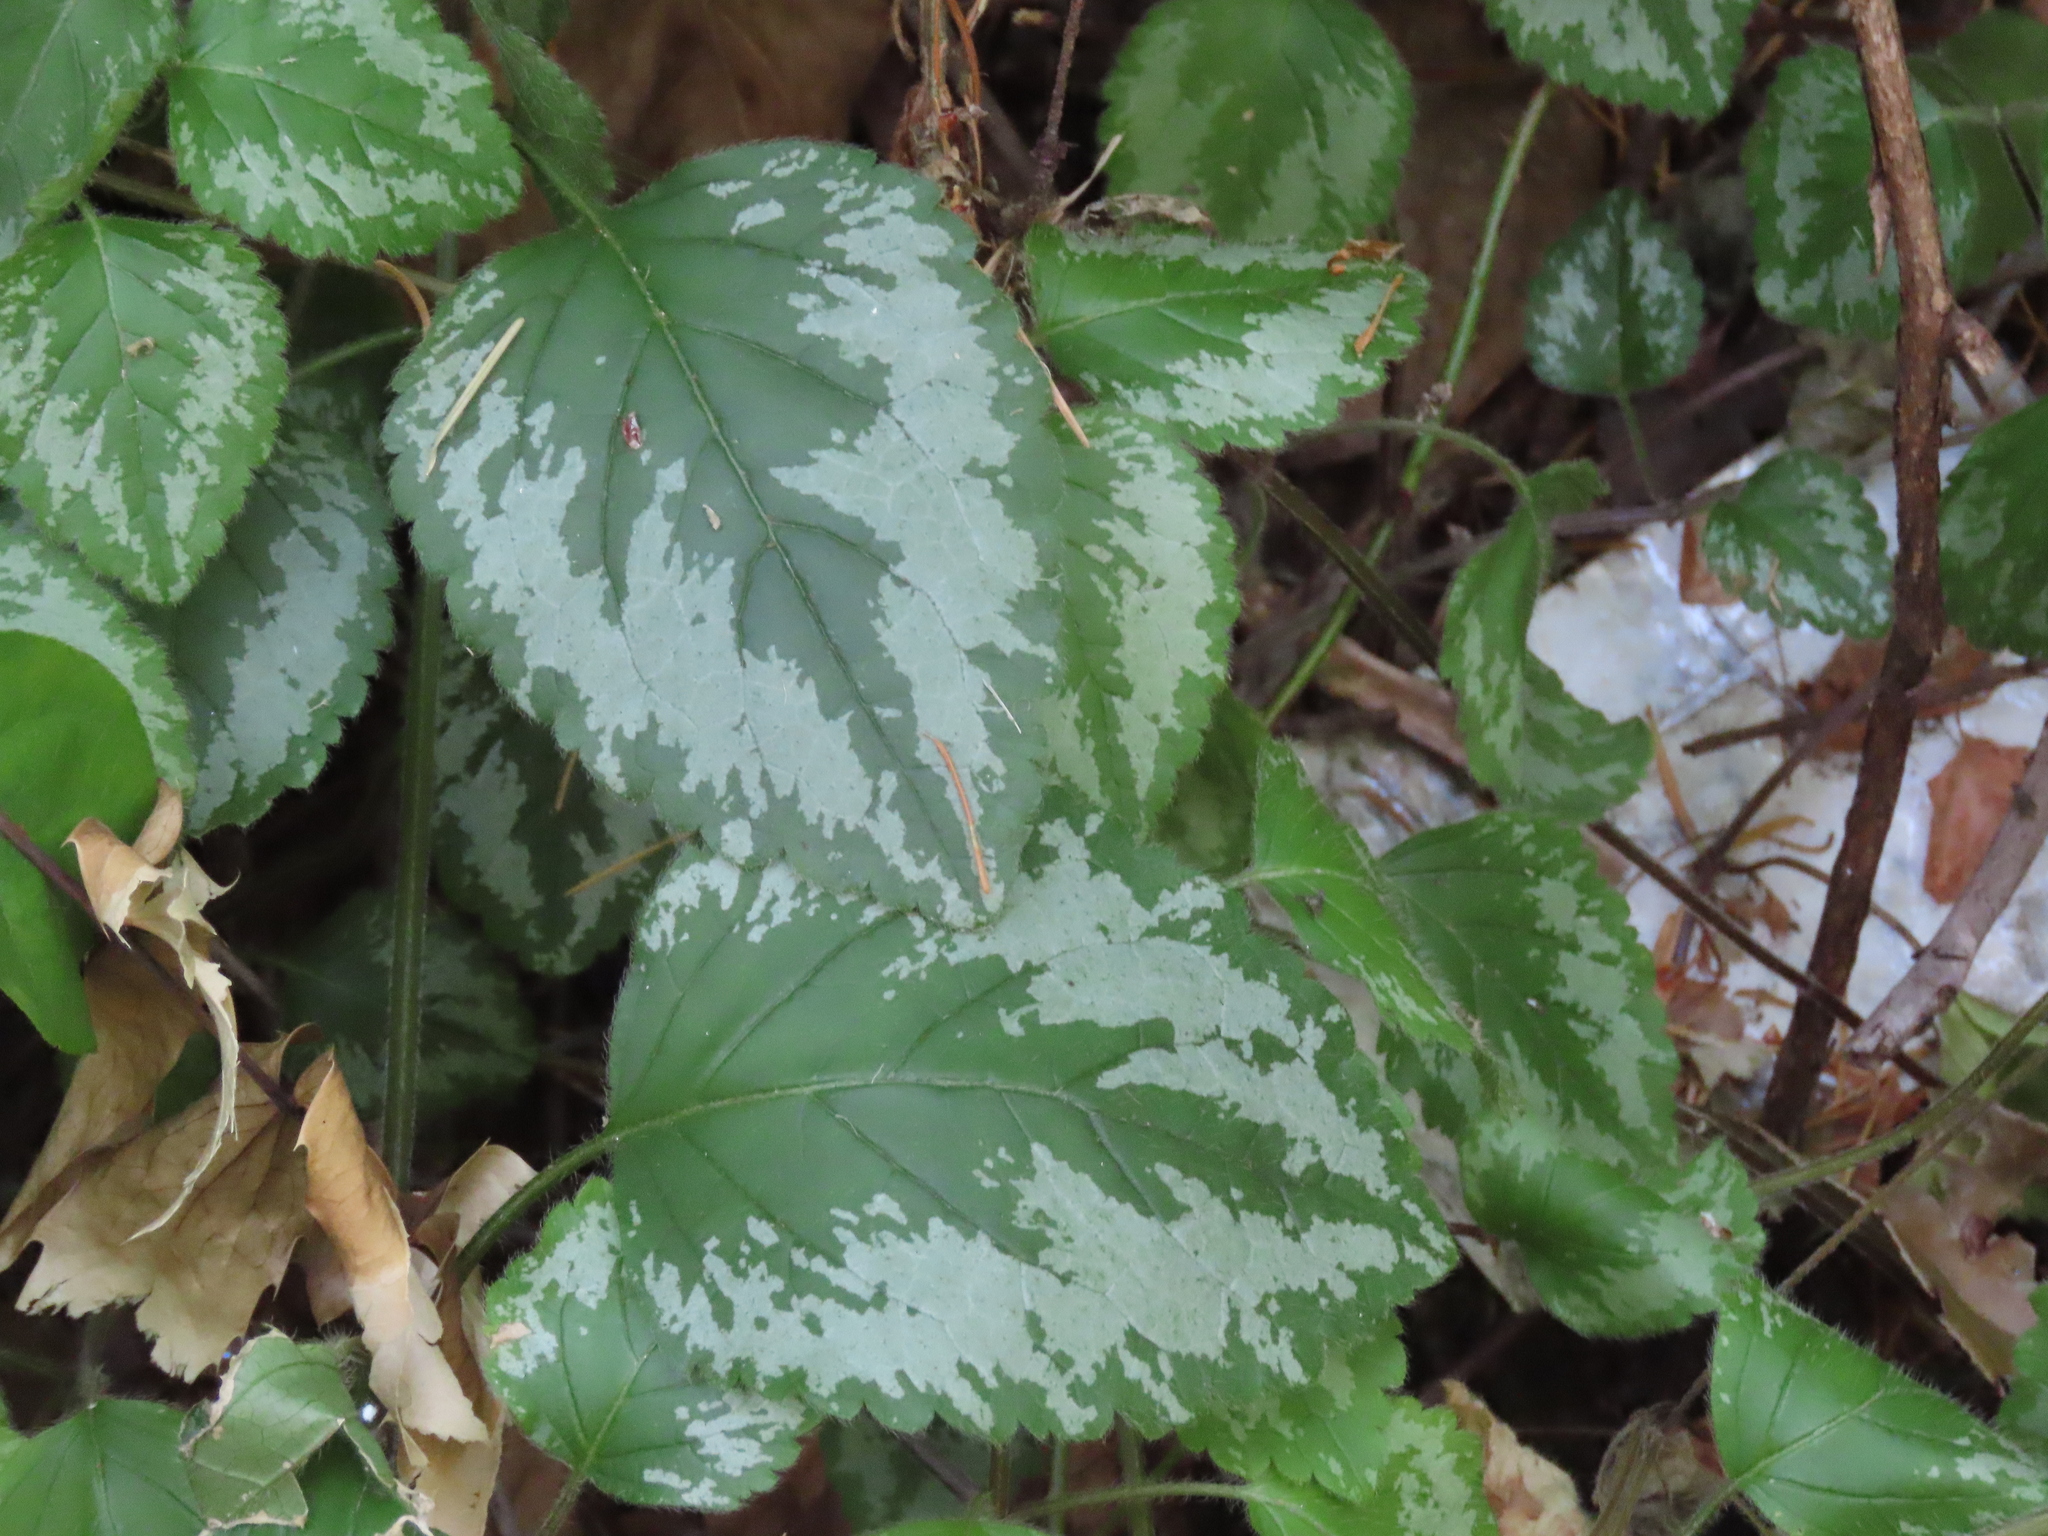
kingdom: Plantae
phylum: Tracheophyta
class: Magnoliopsida
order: Lamiales
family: Lamiaceae
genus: Lamium
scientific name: Lamium galeobdolon
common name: Yellow archangel
